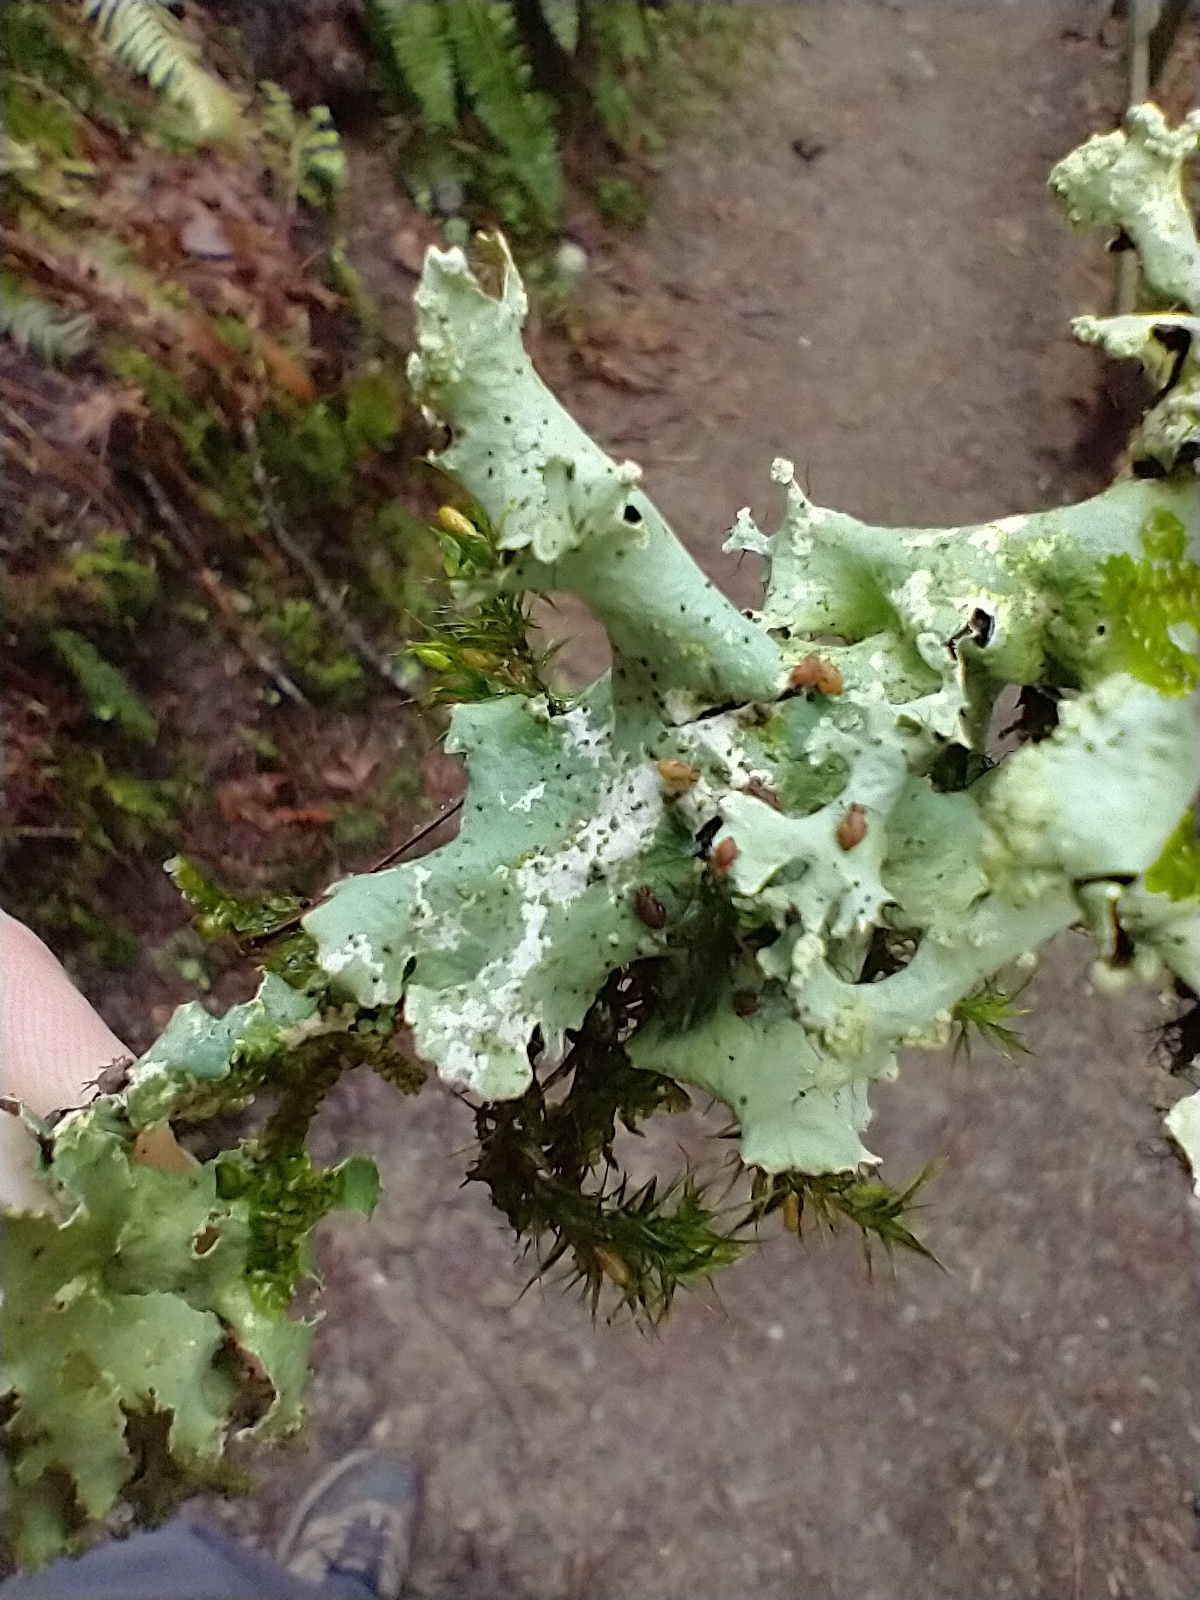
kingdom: Fungi
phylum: Ascomycota
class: Lecanoromycetes
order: Lecanorales
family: Parmeliaceae
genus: Parmotrema
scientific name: Parmotrema arnoldii
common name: Arnold's parmotrema lichen
